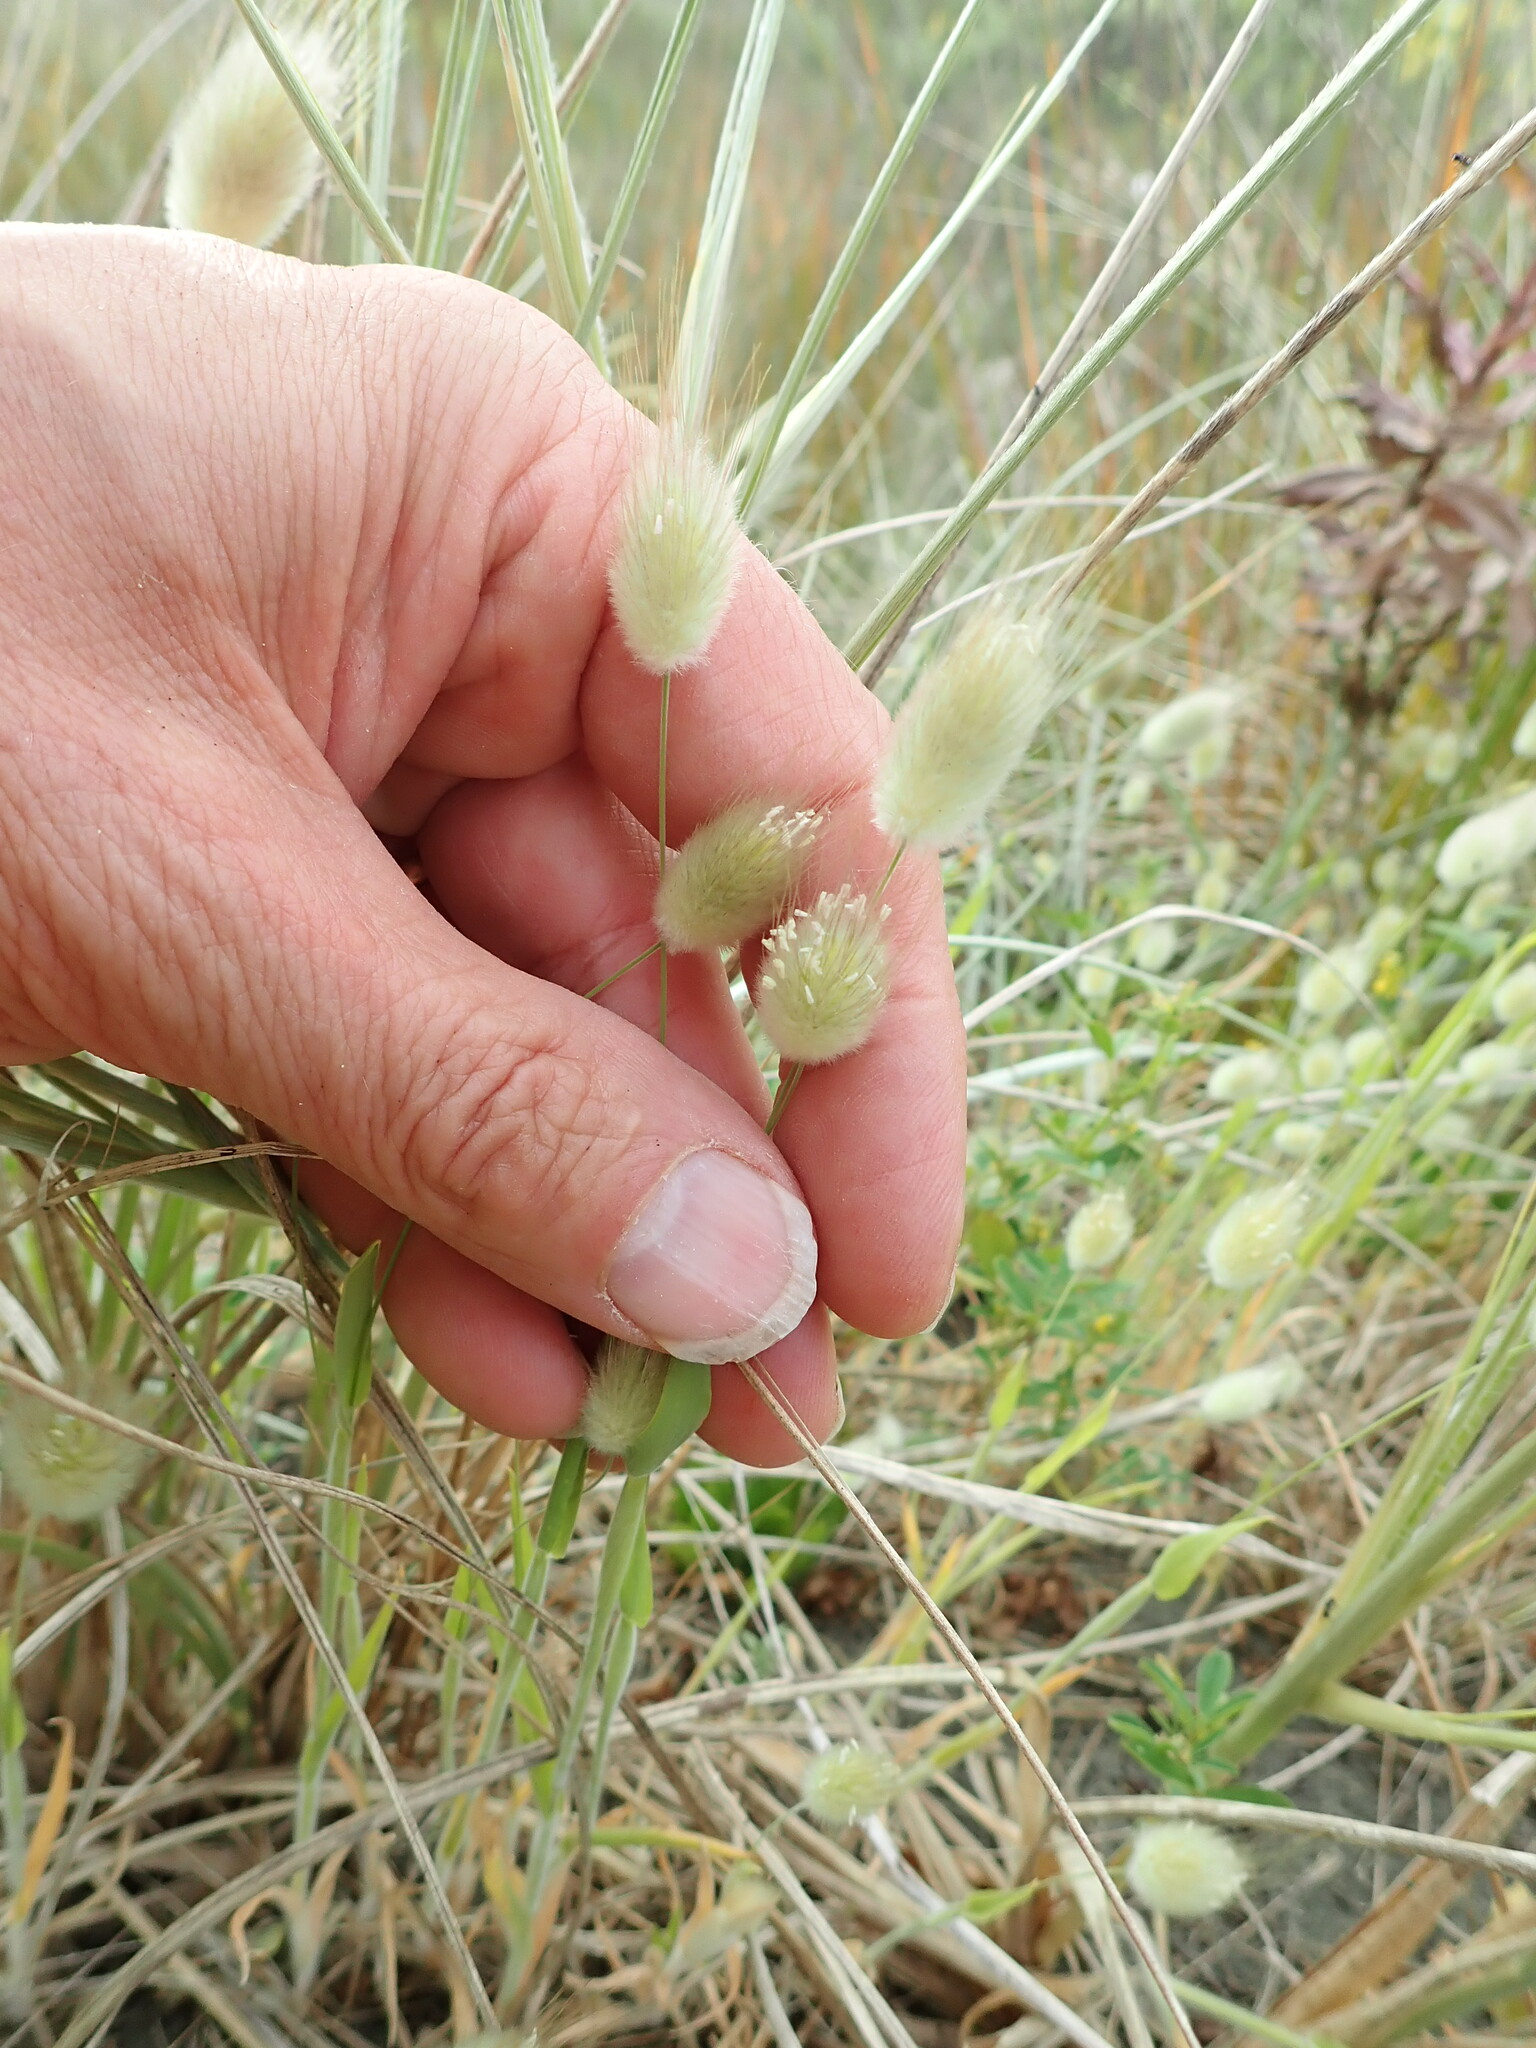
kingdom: Plantae
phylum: Tracheophyta
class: Liliopsida
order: Poales
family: Poaceae
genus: Lagurus
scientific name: Lagurus ovatus
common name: Hare's-tail
